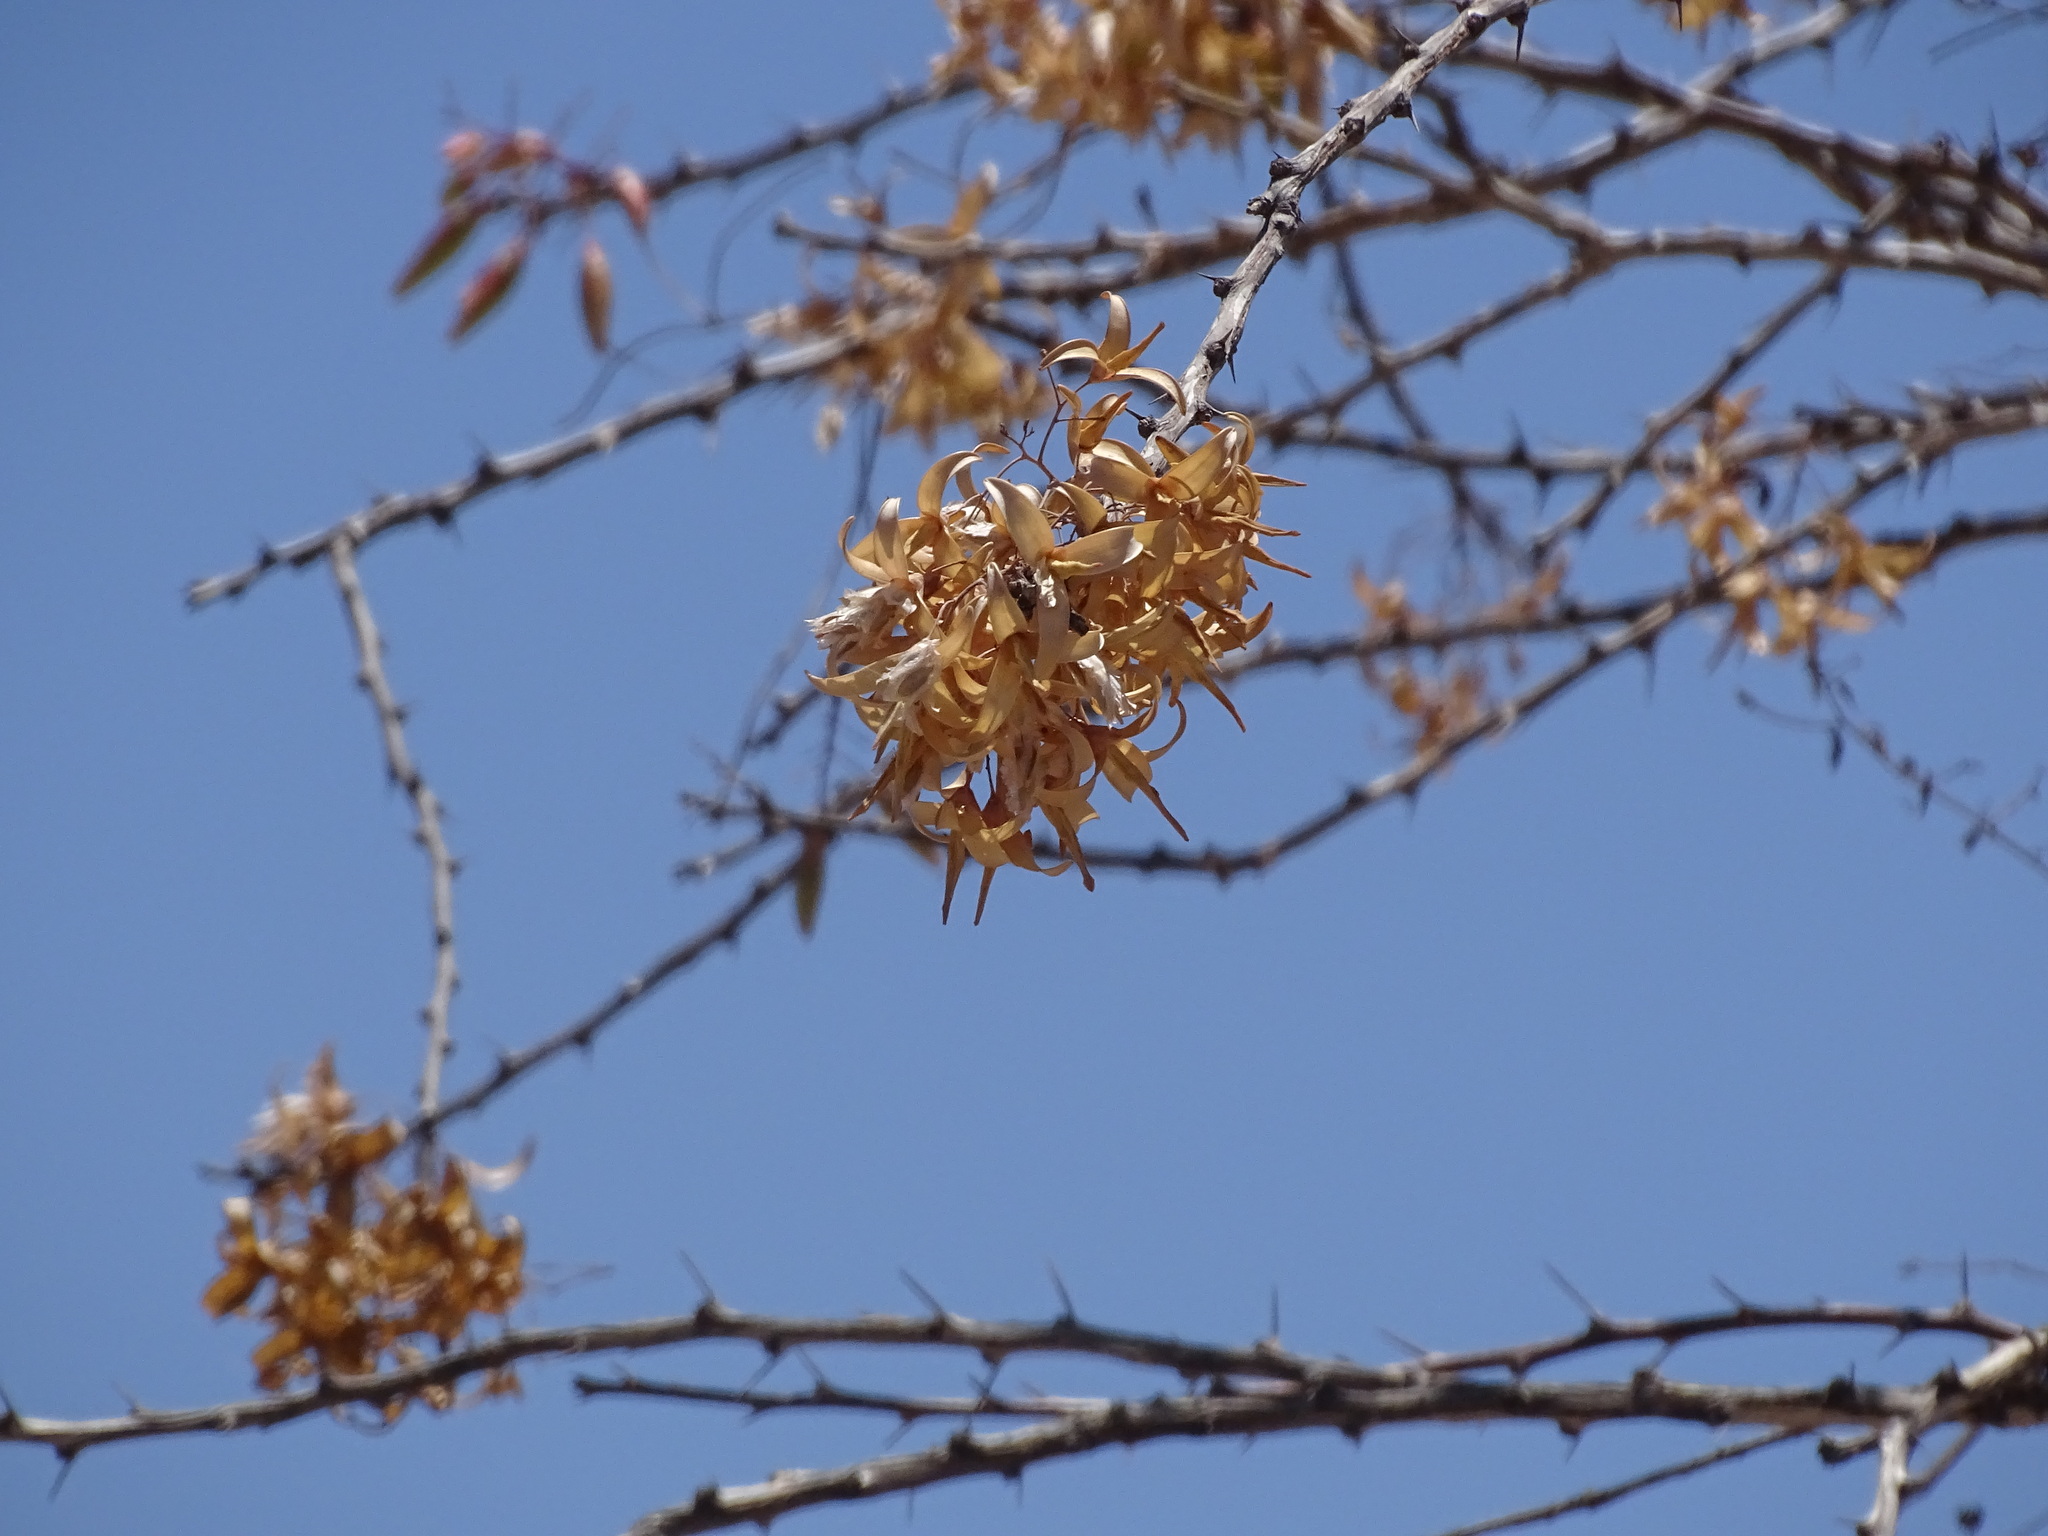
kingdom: Plantae
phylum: Tracheophyta
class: Magnoliopsida
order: Ericales
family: Fouquieriaceae
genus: Fouquieria
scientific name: Fouquieria macdougalii
